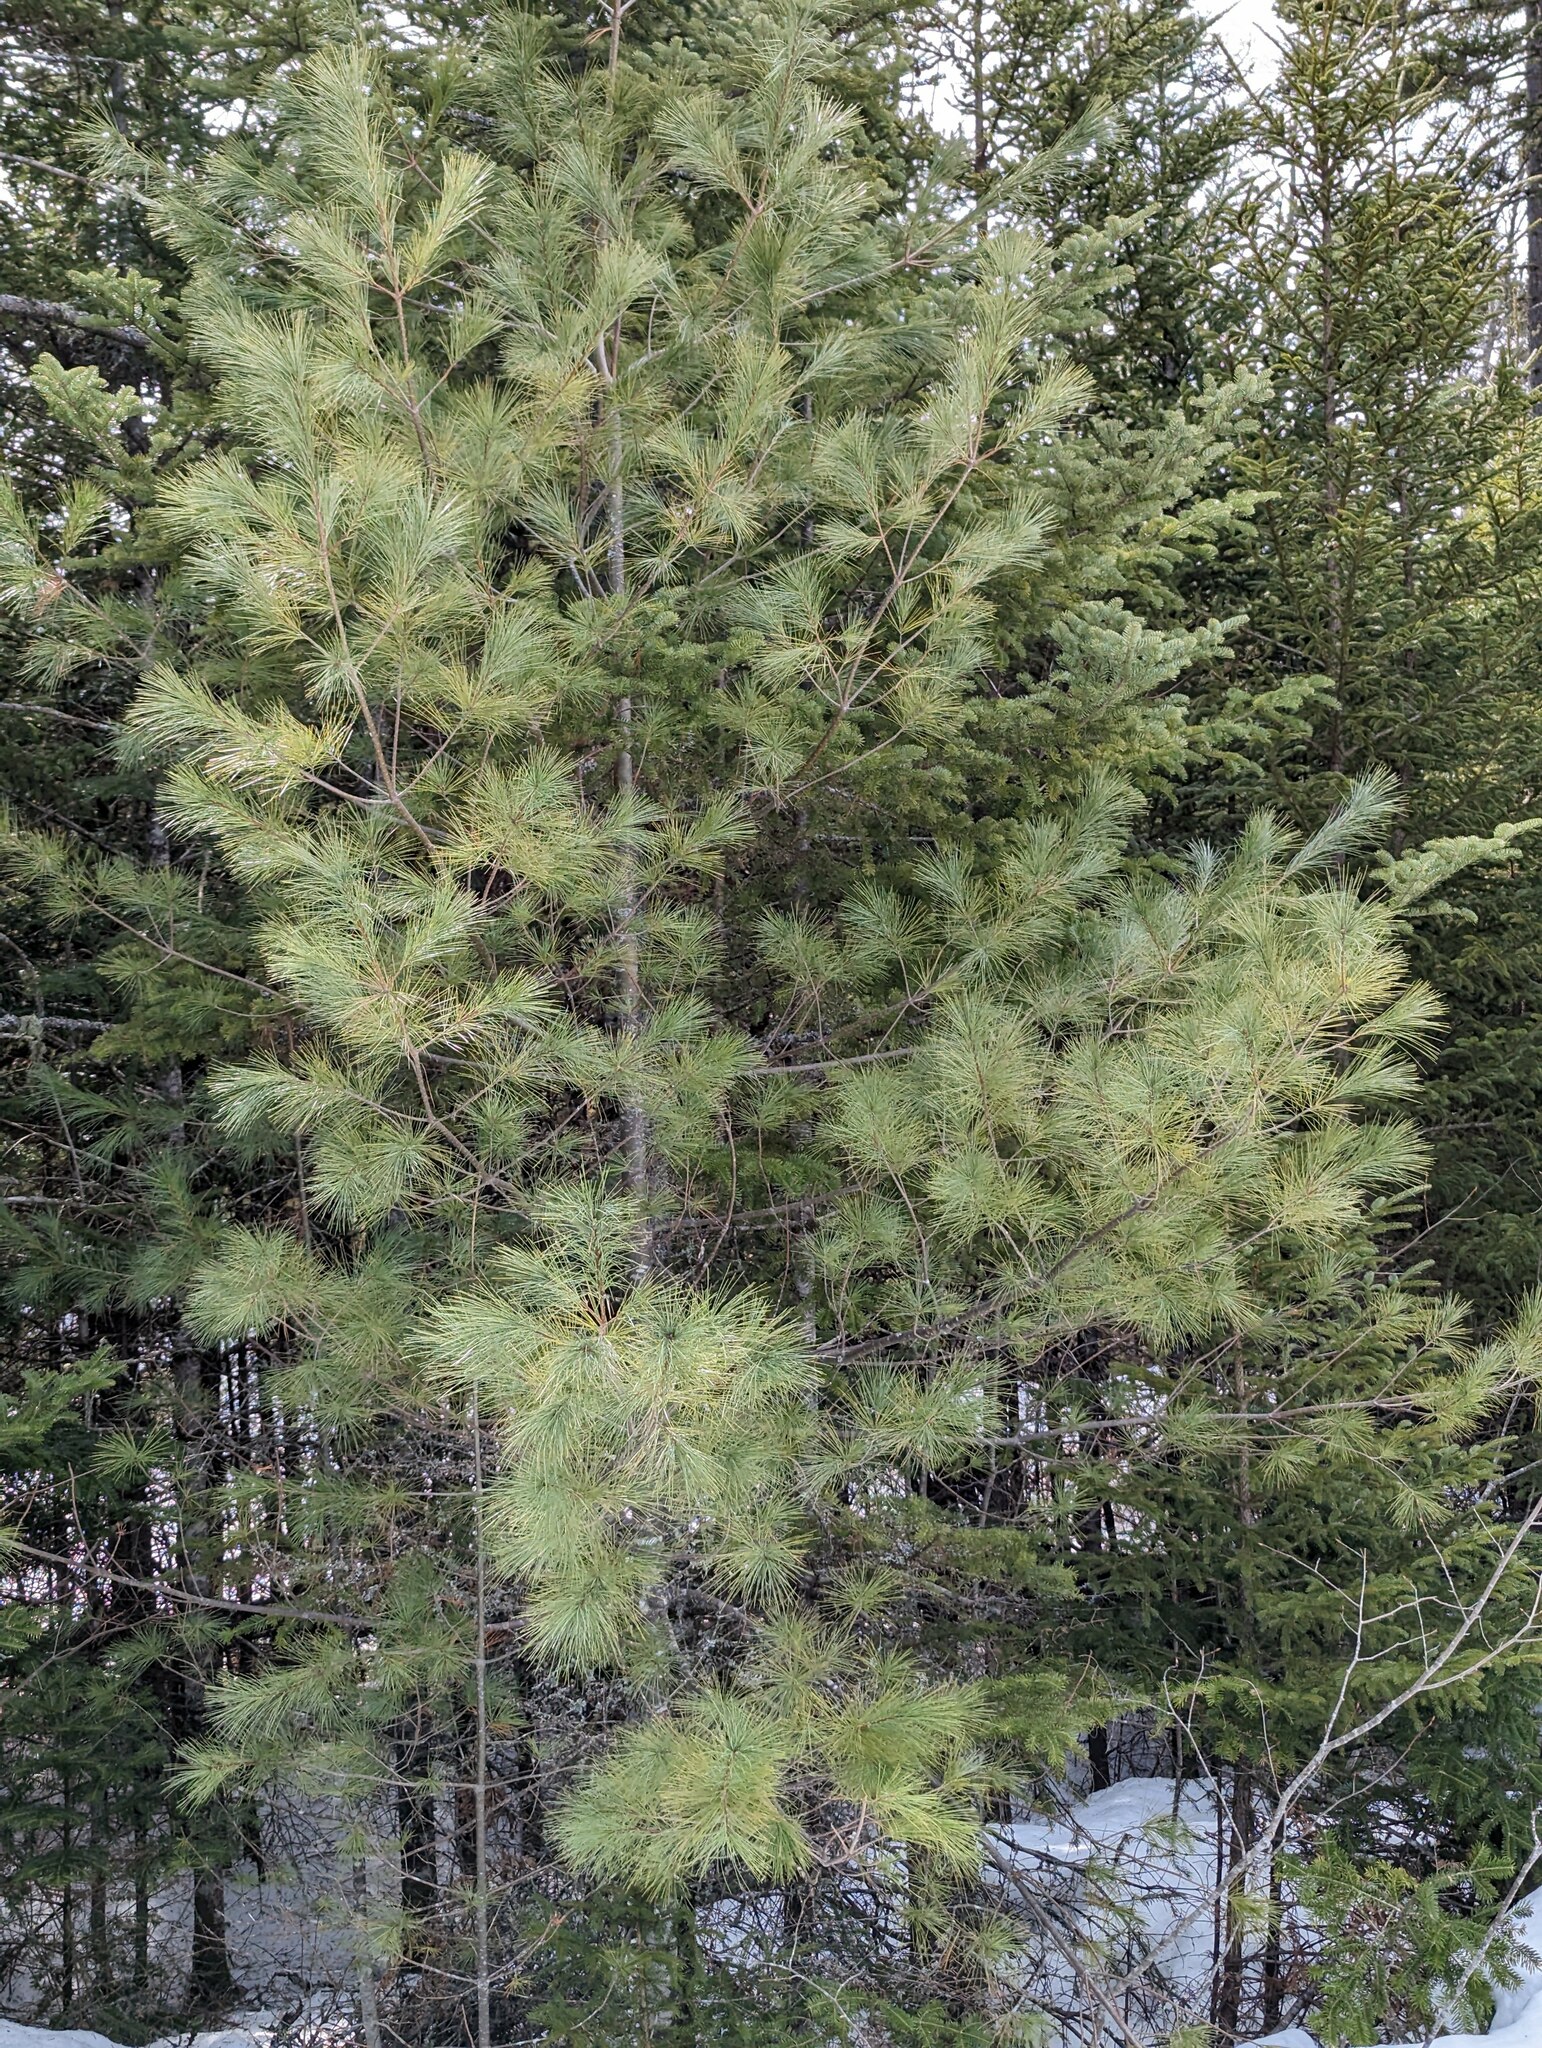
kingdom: Plantae
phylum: Tracheophyta
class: Pinopsida
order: Pinales
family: Pinaceae
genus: Pinus
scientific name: Pinus strobus
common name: Weymouth pine
